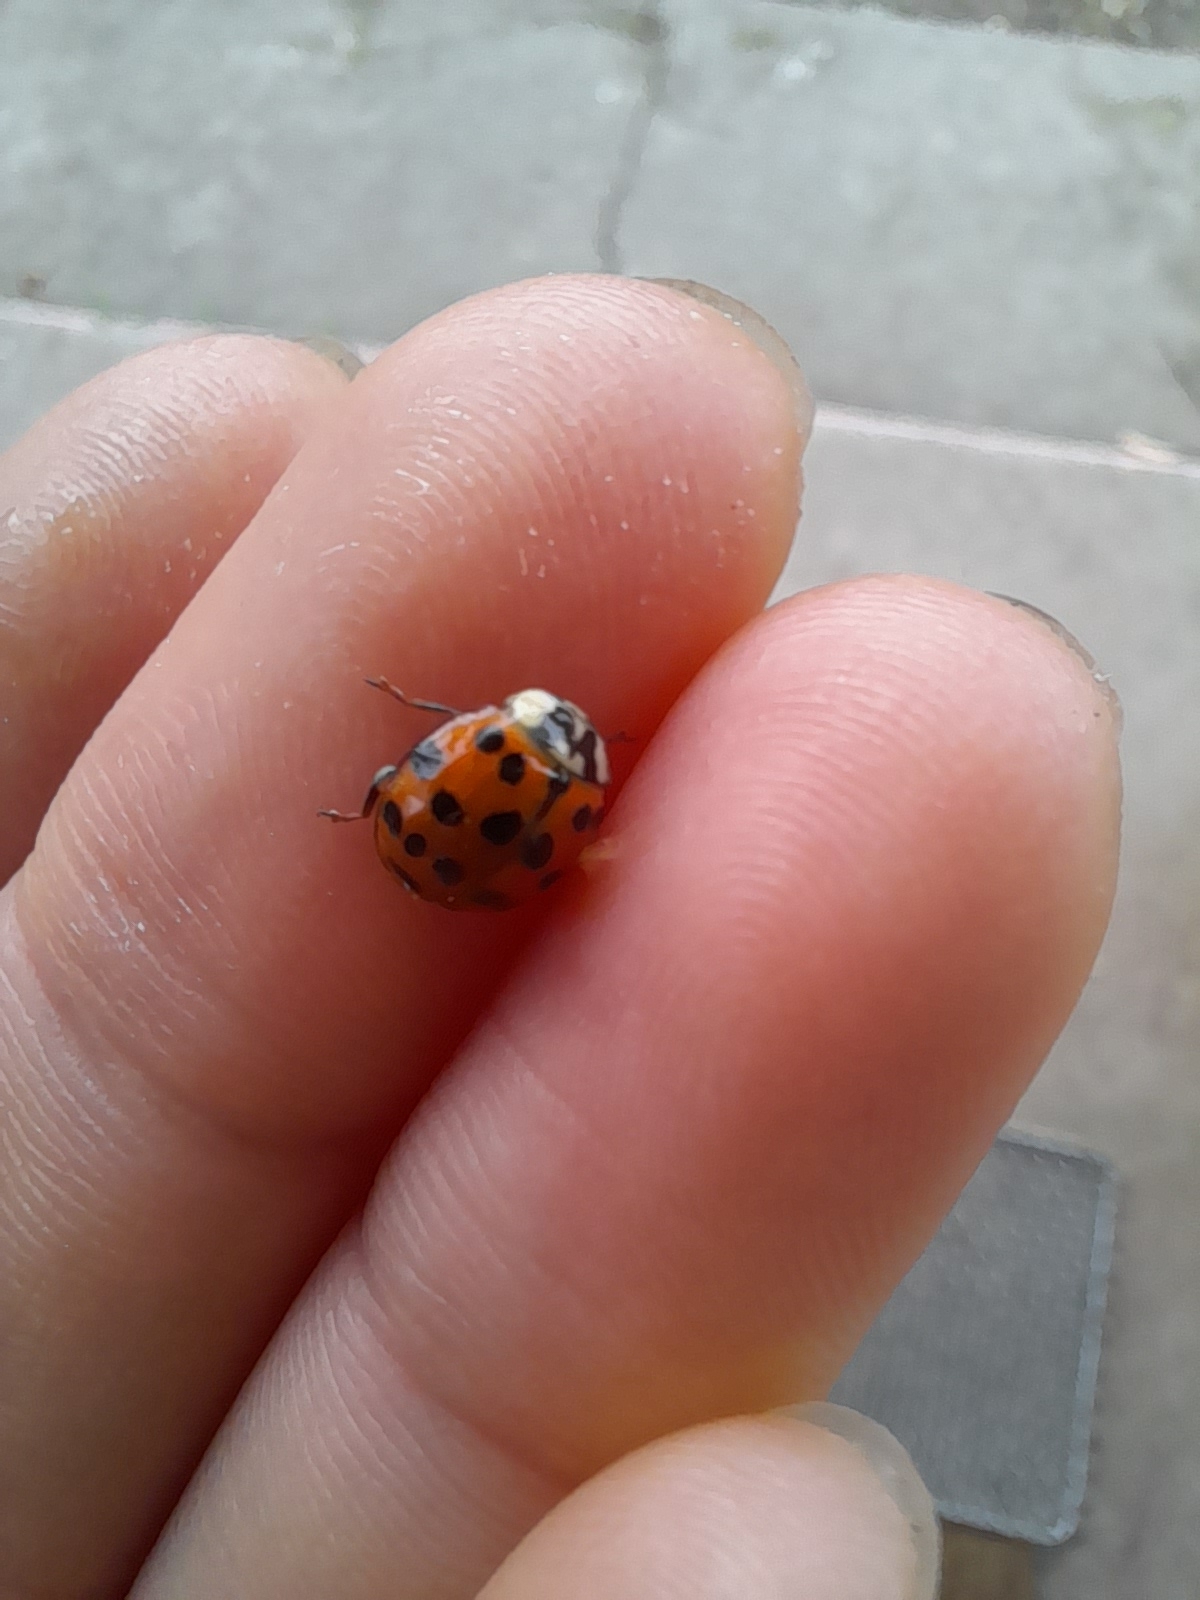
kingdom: Animalia
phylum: Arthropoda
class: Insecta
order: Coleoptera
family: Coccinellidae
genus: Harmonia
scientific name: Harmonia axyridis
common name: Harlequin ladybird
